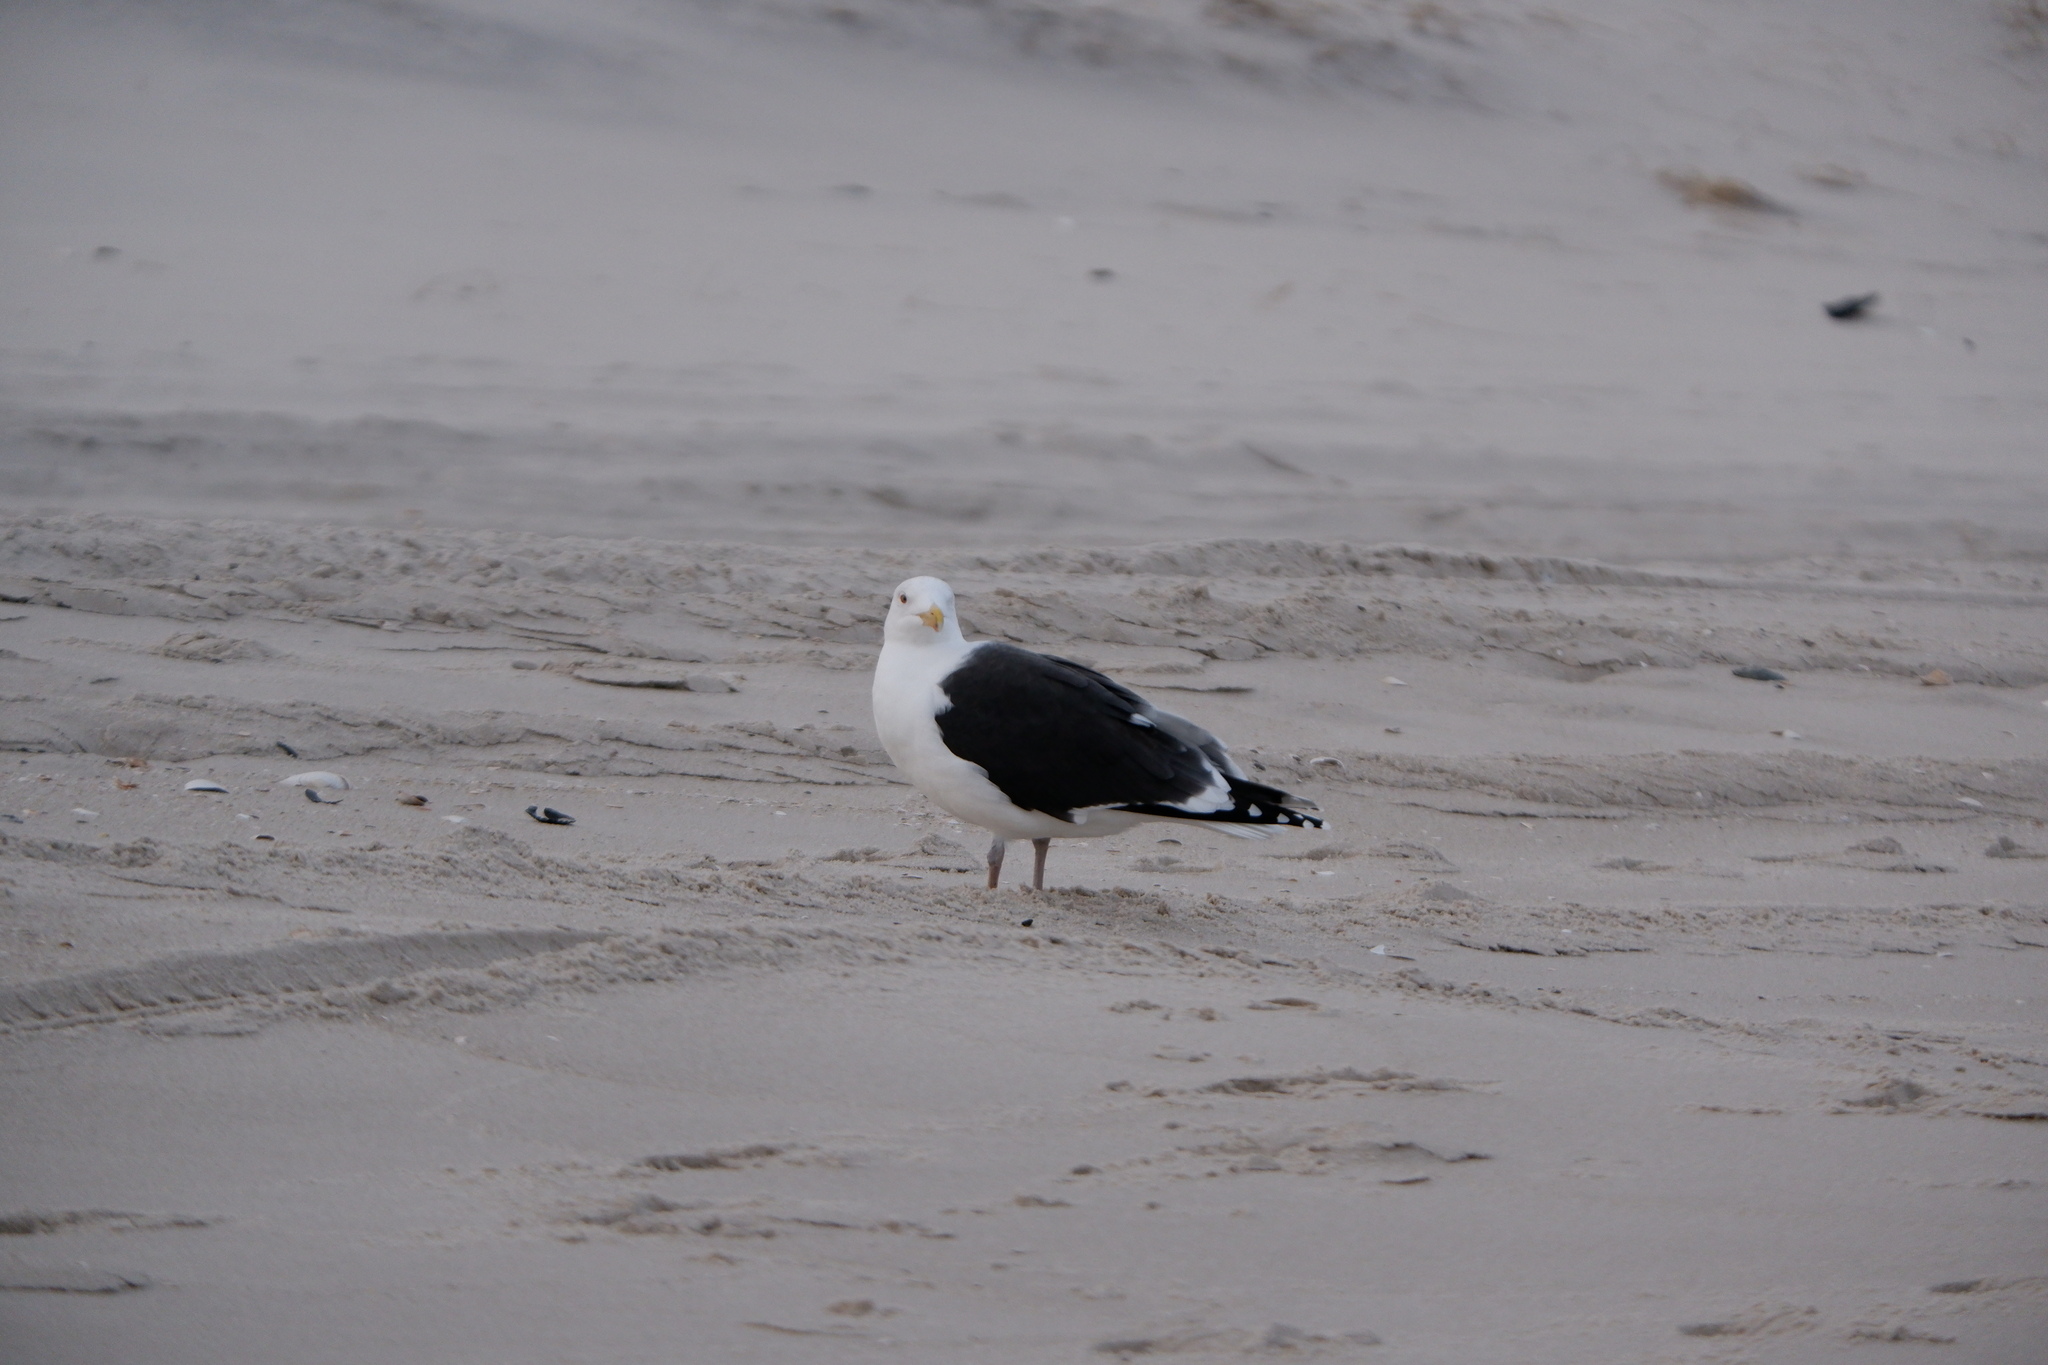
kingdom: Animalia
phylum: Chordata
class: Aves
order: Charadriiformes
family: Laridae
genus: Larus
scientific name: Larus marinus
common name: Great black-backed gull
